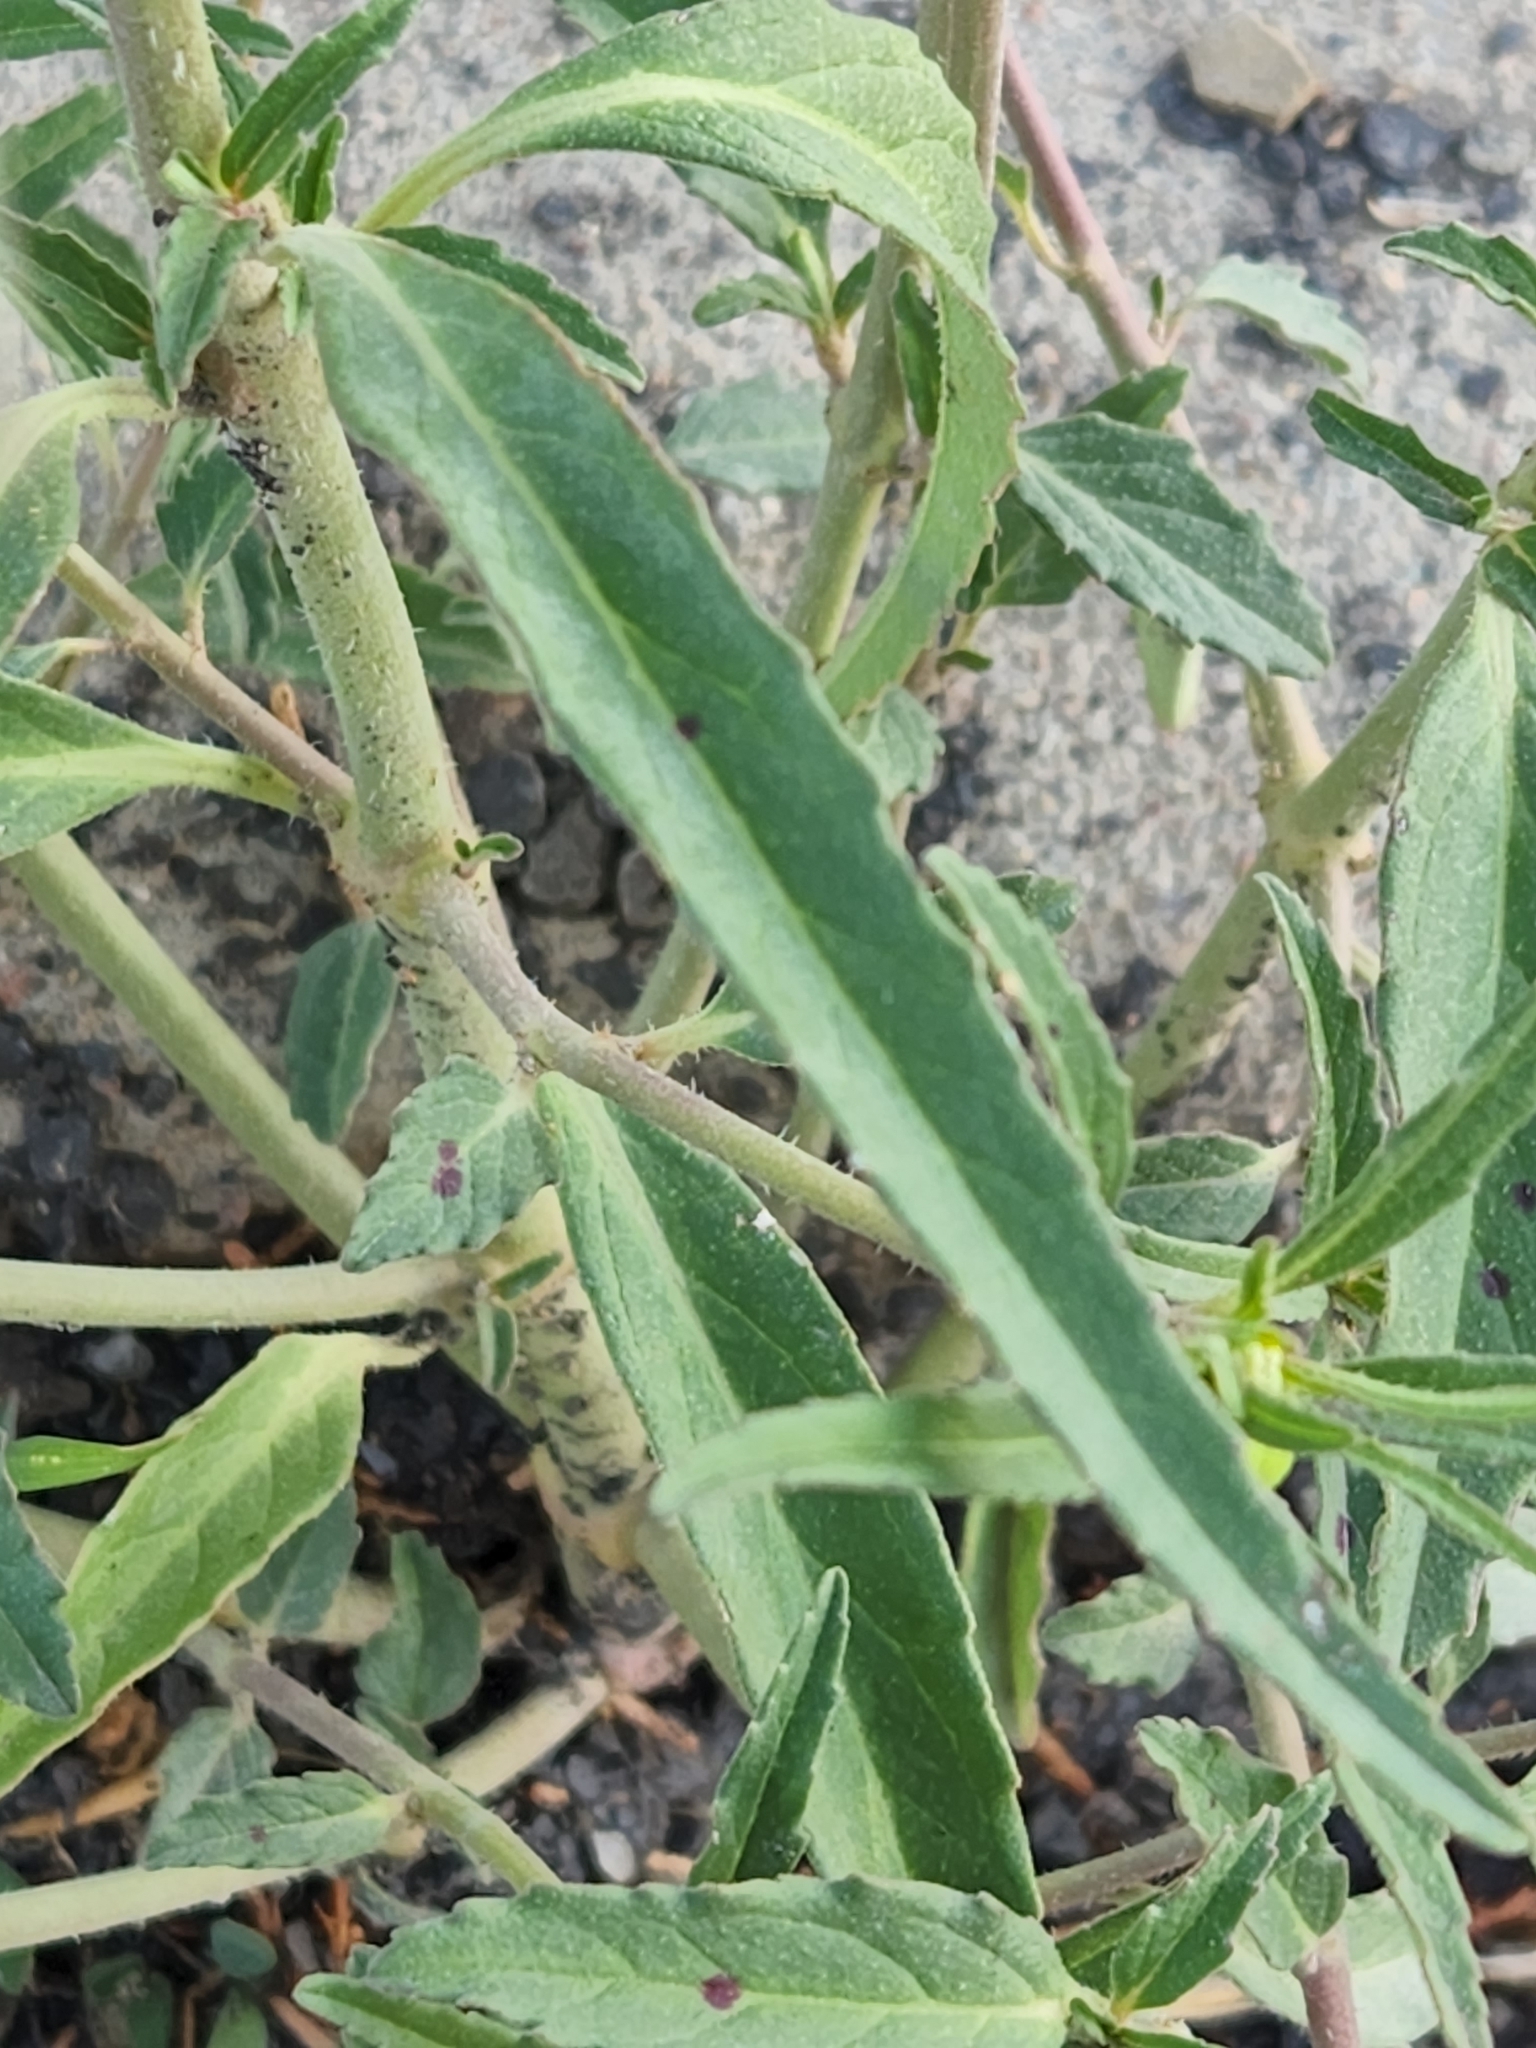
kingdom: Plantae
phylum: Tracheophyta
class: Magnoliopsida
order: Malpighiales
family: Euphorbiaceae
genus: Euphorbia
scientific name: Euphorbia davidii
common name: David's spurge
